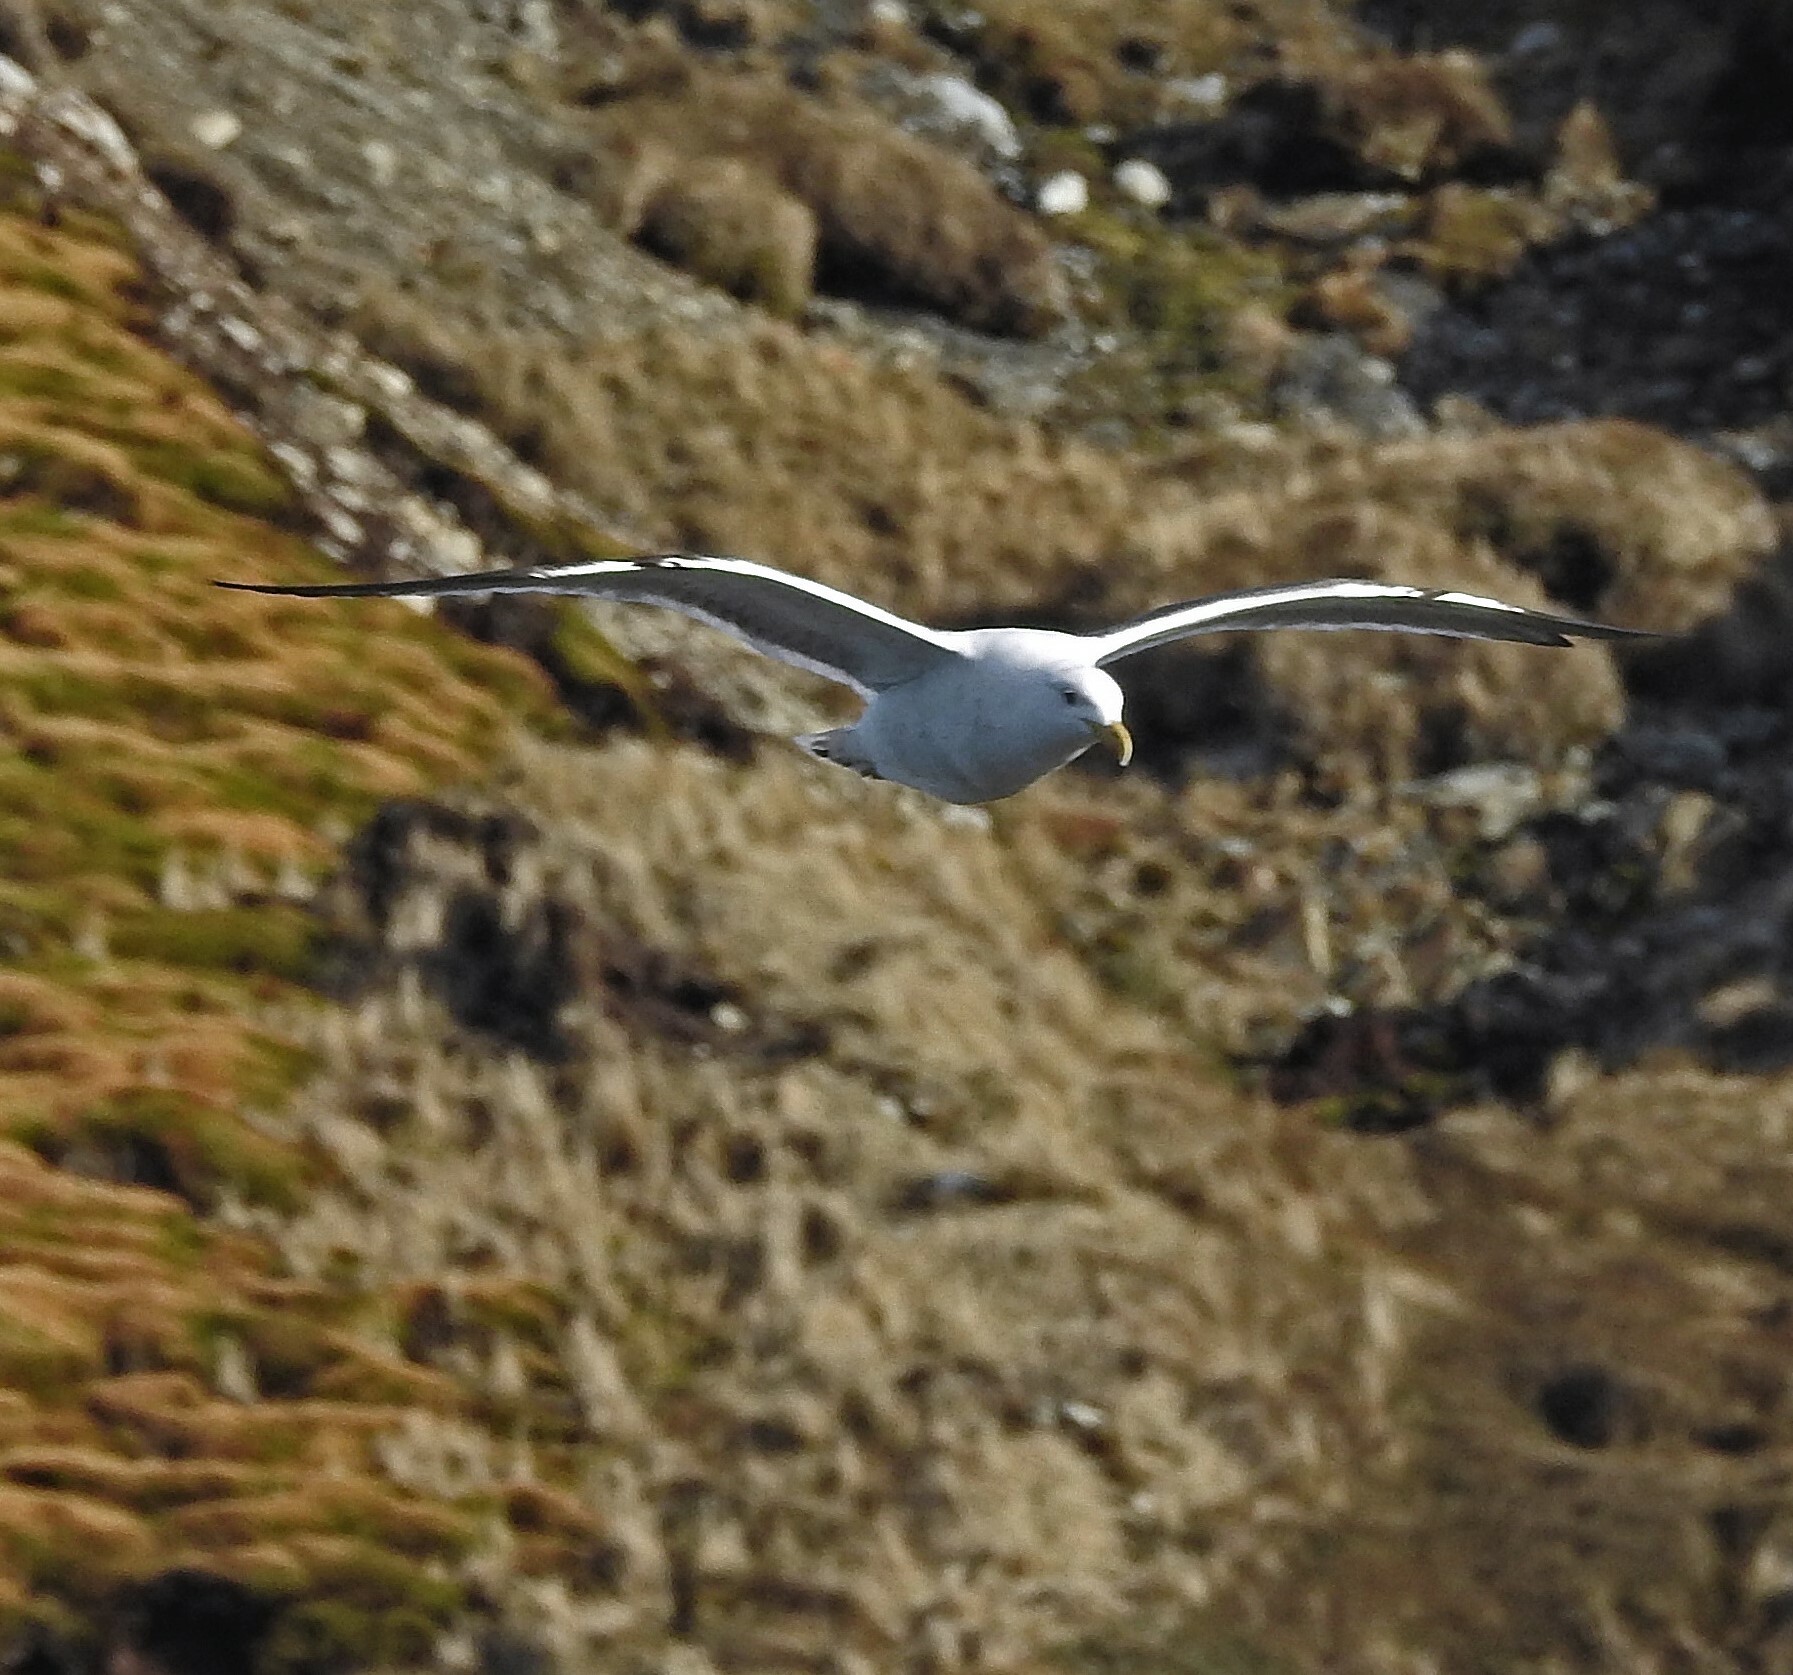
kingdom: Animalia
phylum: Chordata
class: Aves
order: Charadriiformes
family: Laridae
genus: Larus
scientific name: Larus dominicanus
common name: Kelp gull
